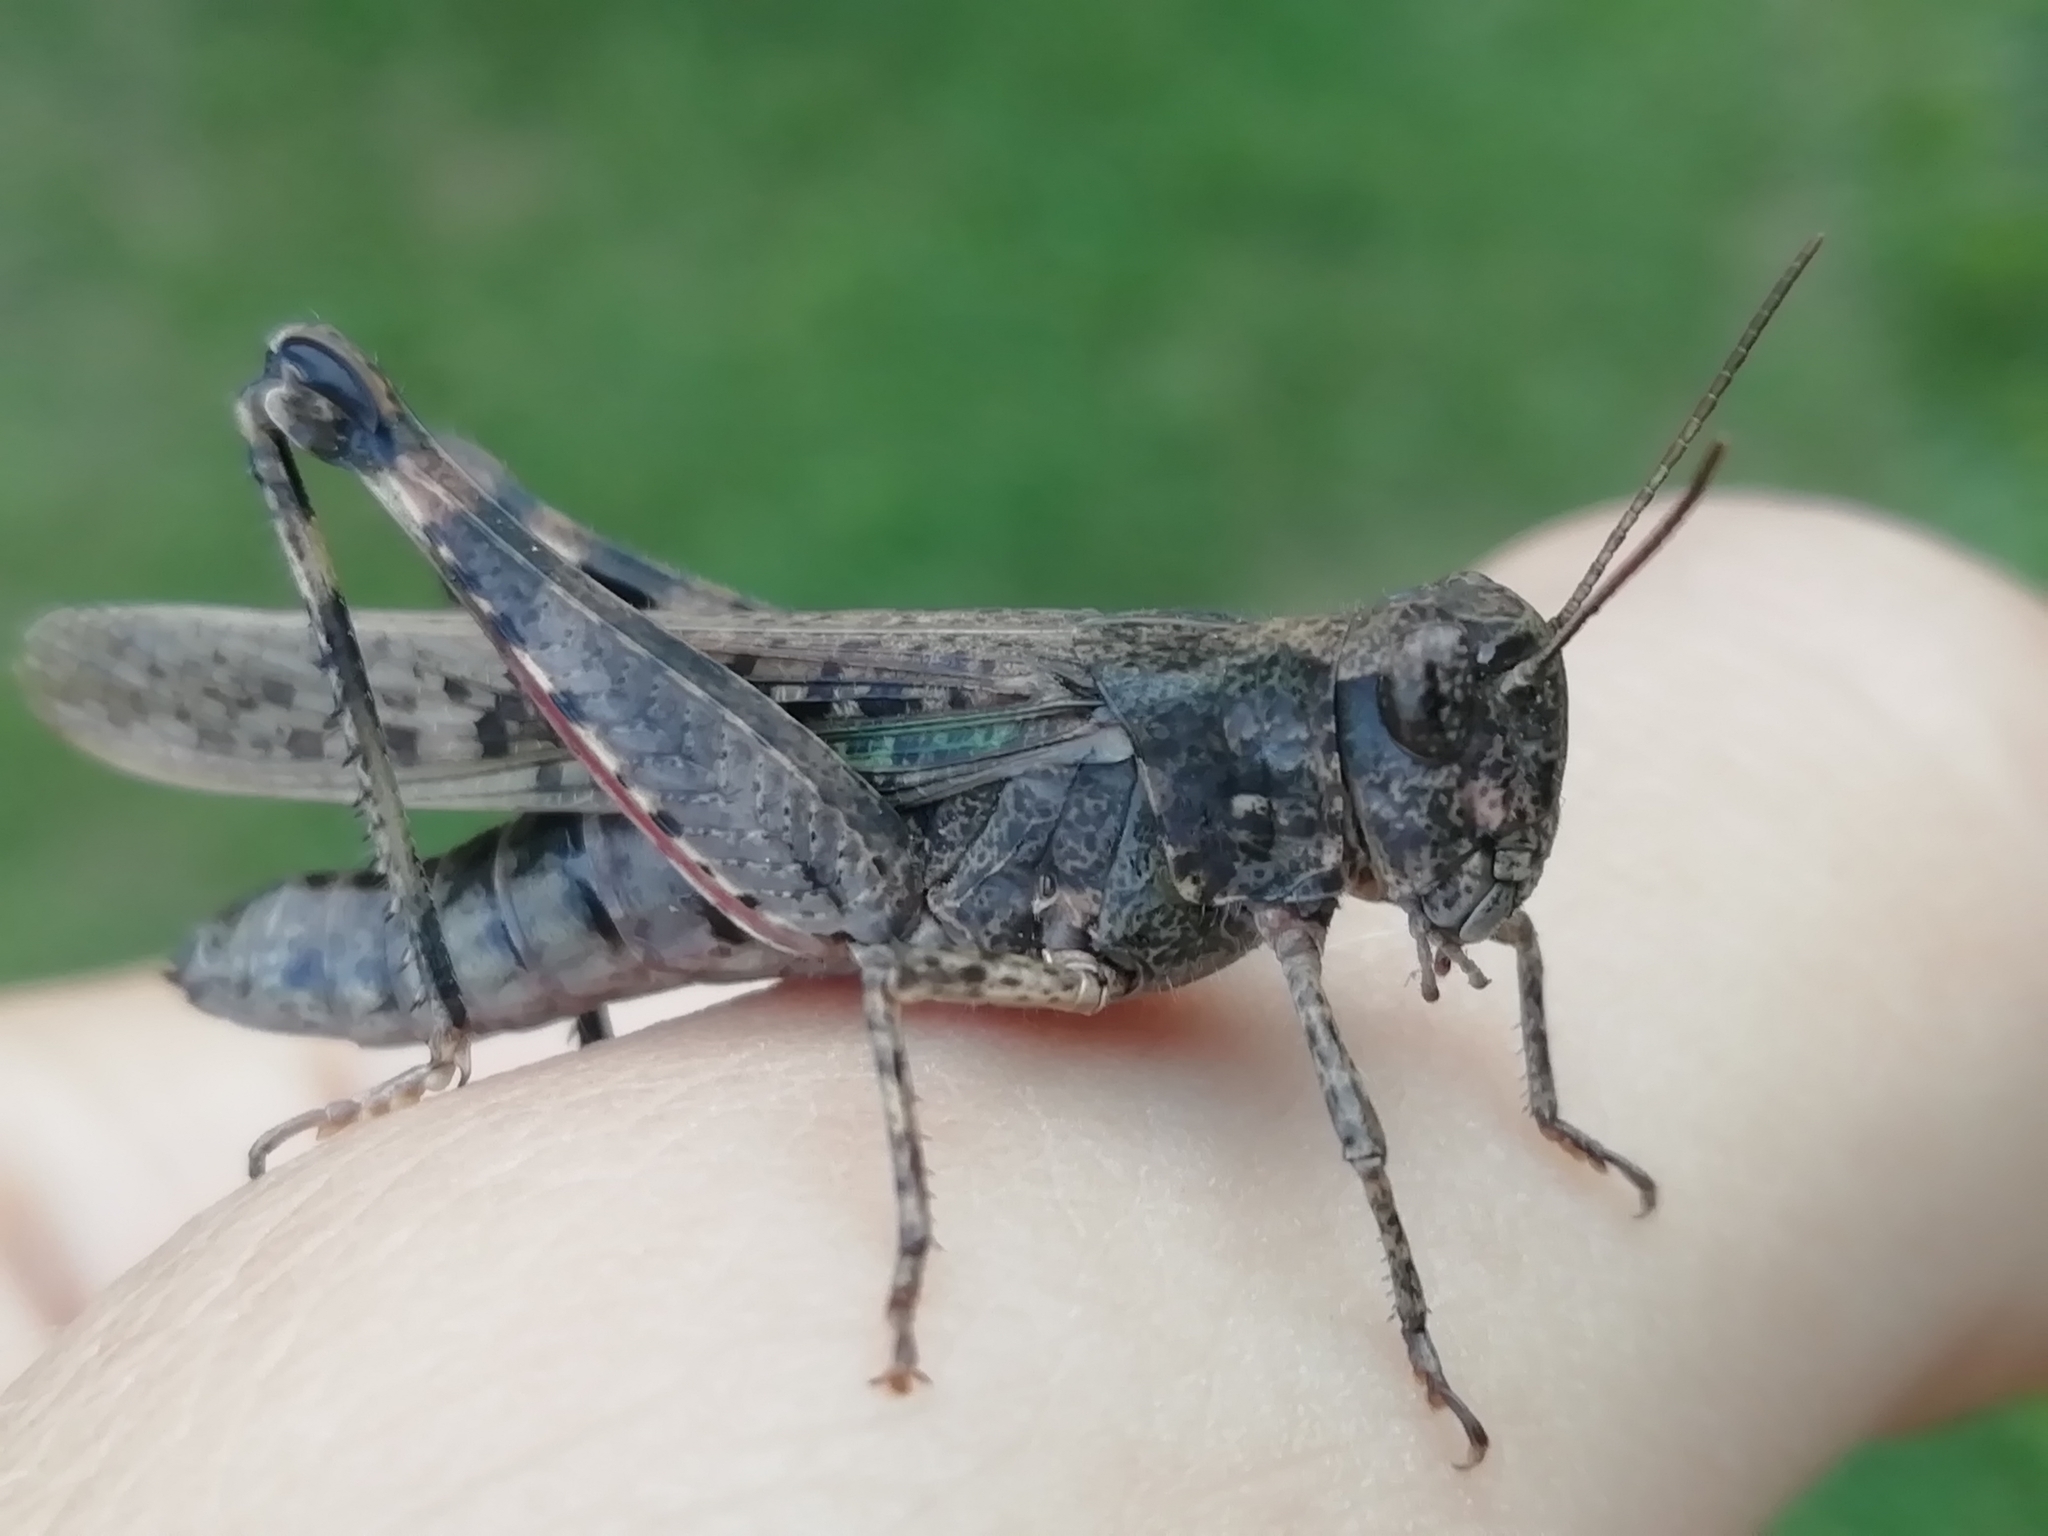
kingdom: Animalia
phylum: Arthropoda
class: Insecta
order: Orthoptera
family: Acrididae
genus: Epacromius
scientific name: Epacromius pulverulentus
